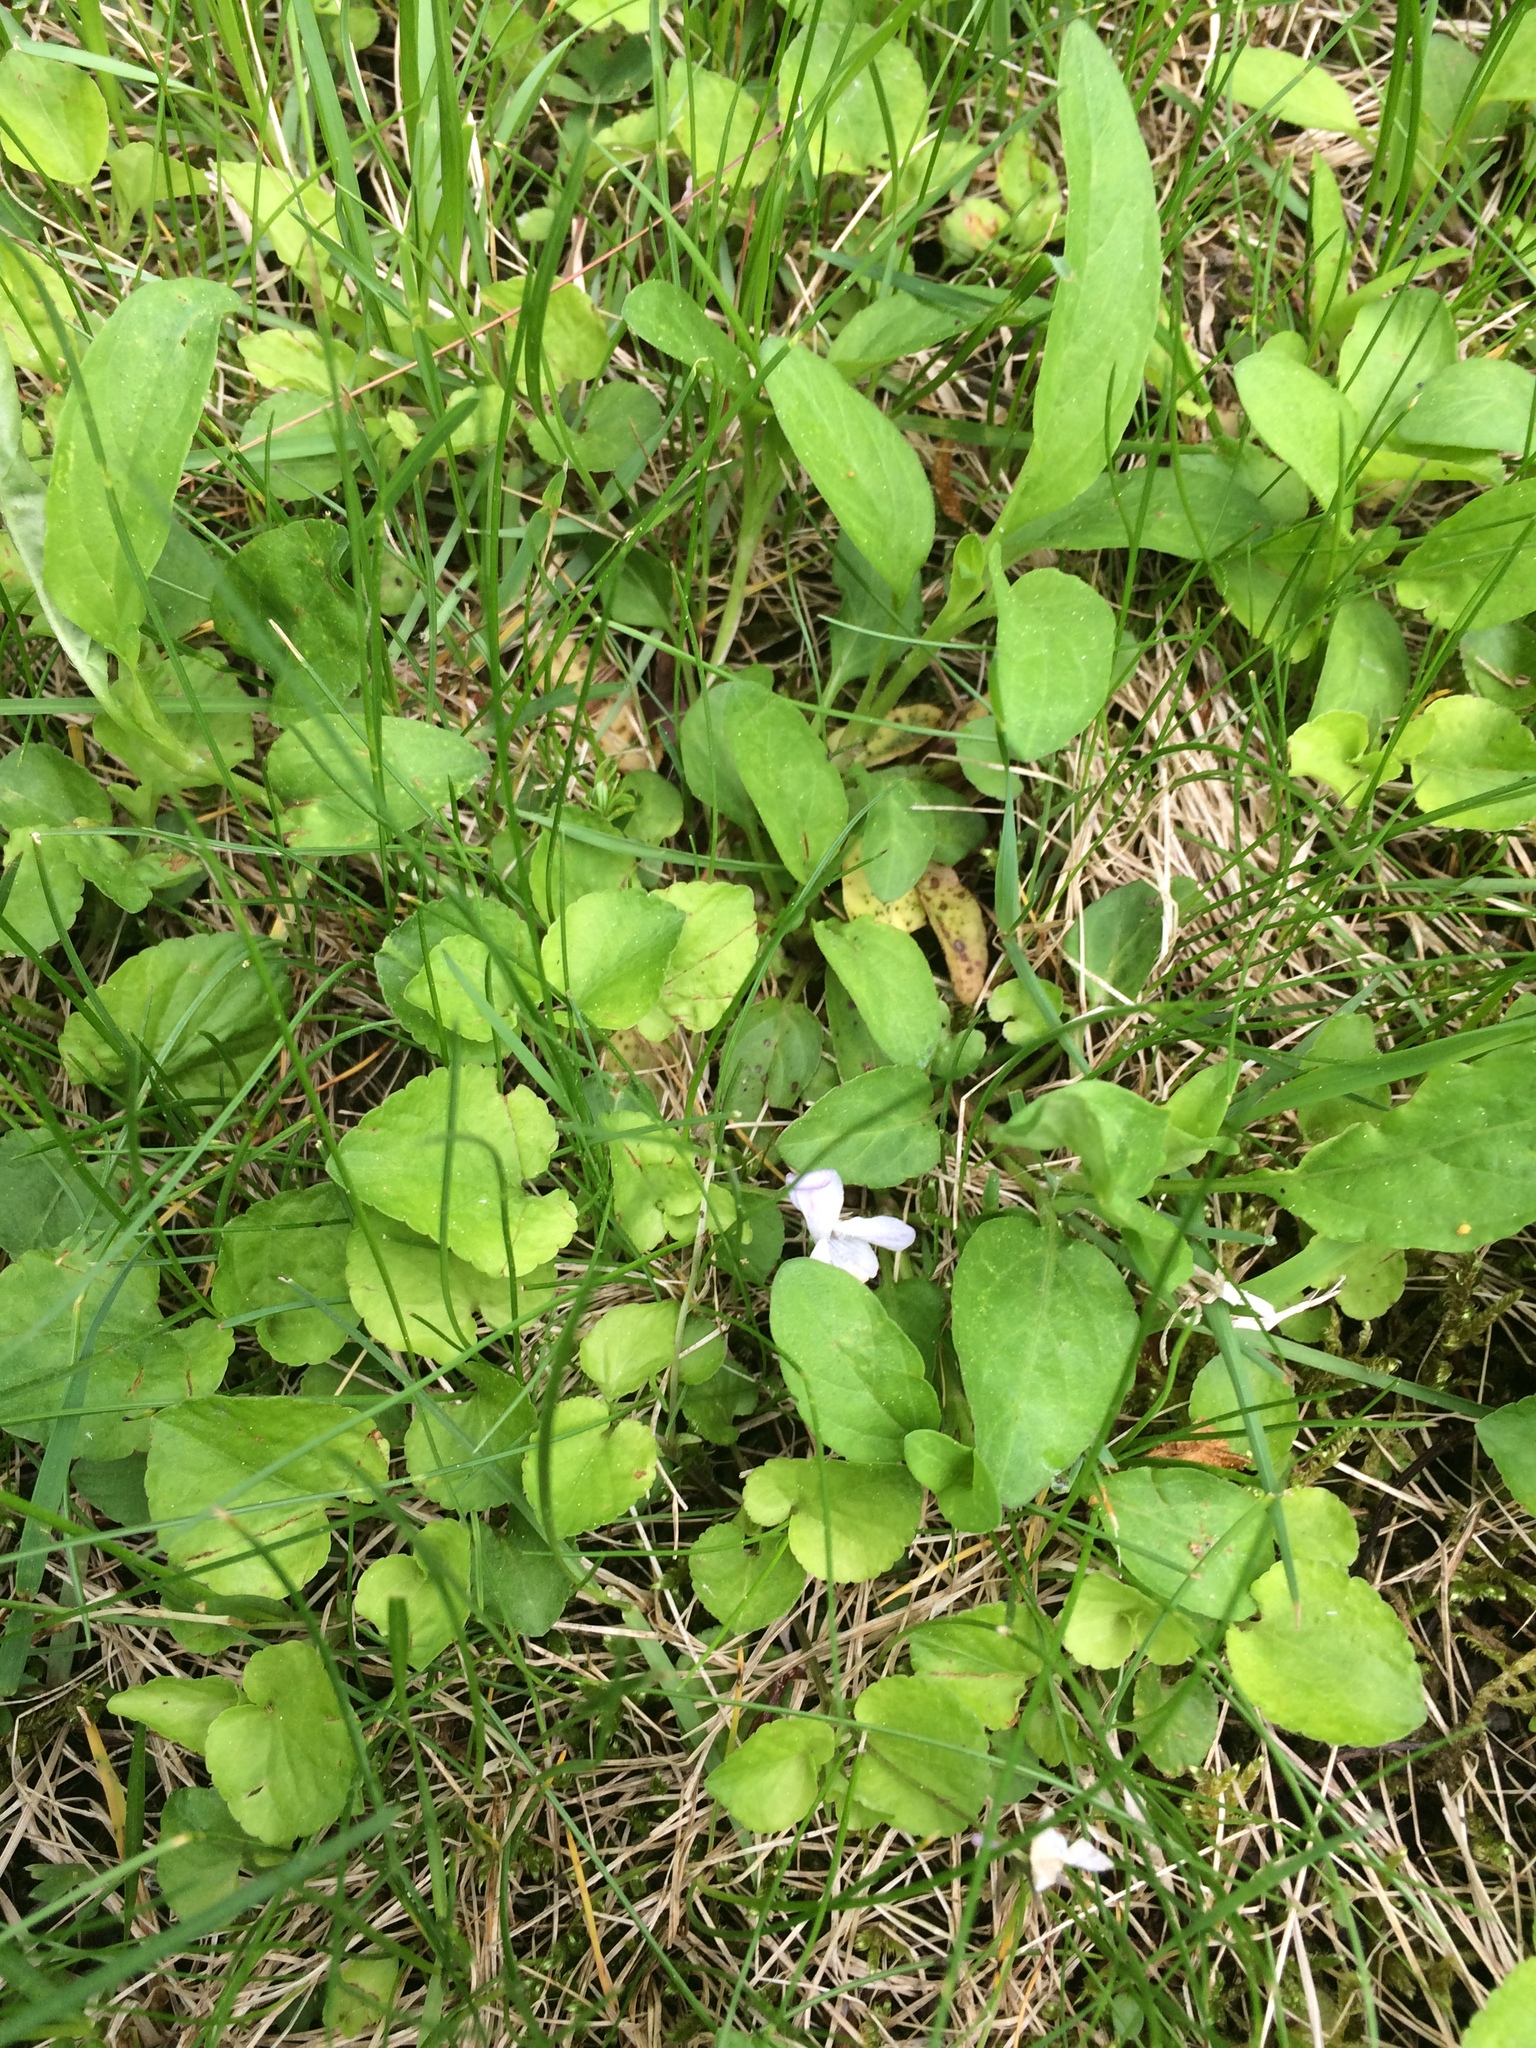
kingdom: Plantae
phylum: Tracheophyta
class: Magnoliopsida
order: Malpighiales
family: Violaceae
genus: Viola
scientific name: Viola labradorica
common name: Labrador violet
